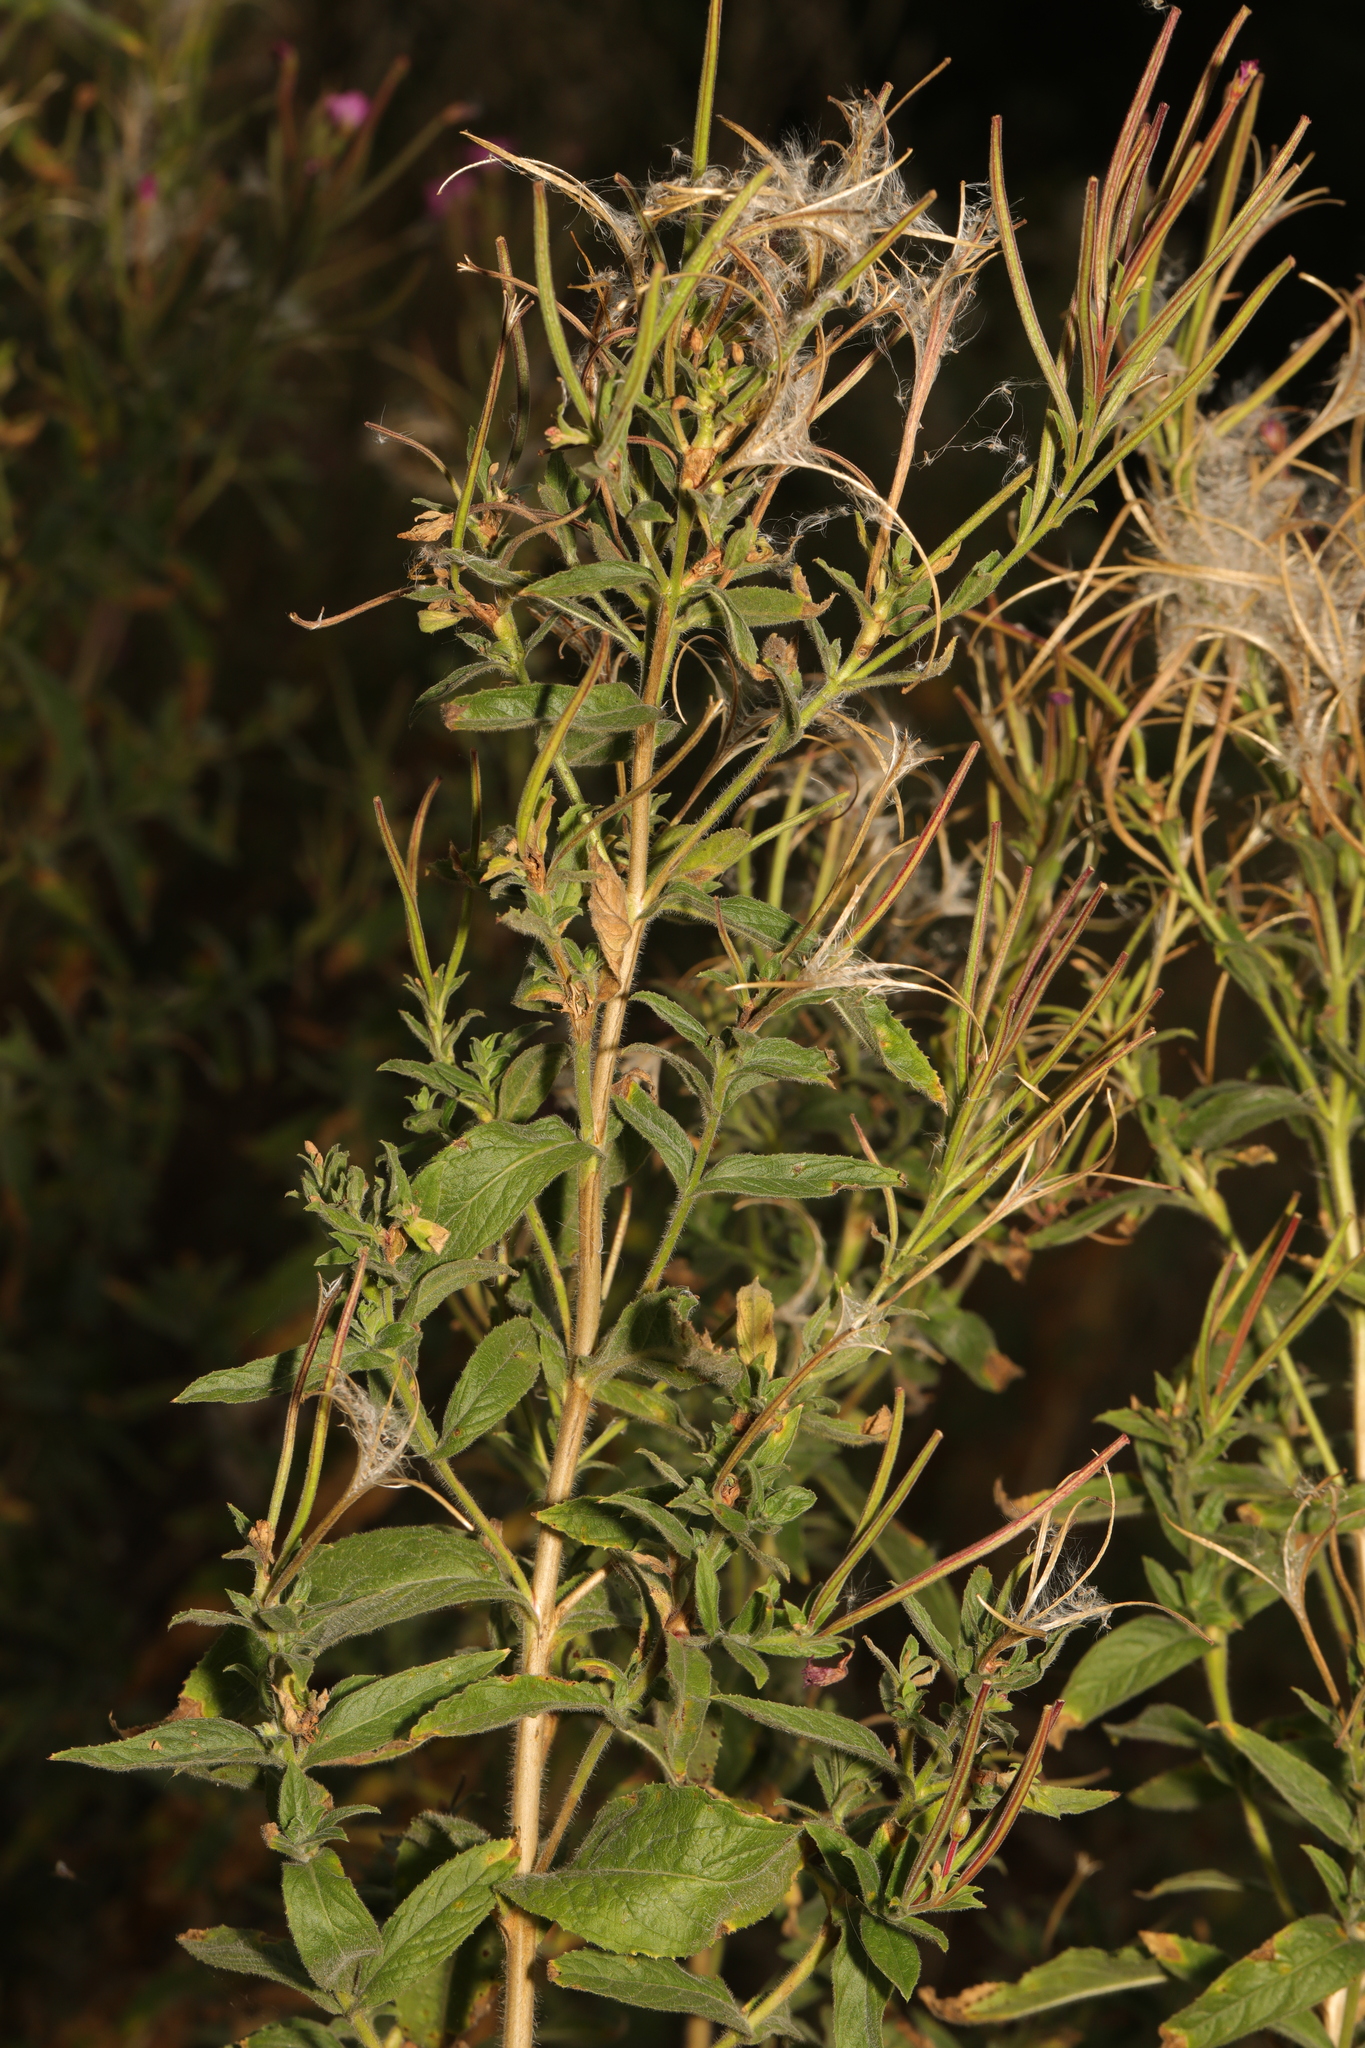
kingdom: Plantae
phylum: Tracheophyta
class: Magnoliopsida
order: Myrtales
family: Onagraceae
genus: Epilobium
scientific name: Epilobium hirsutum
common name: Great willowherb
